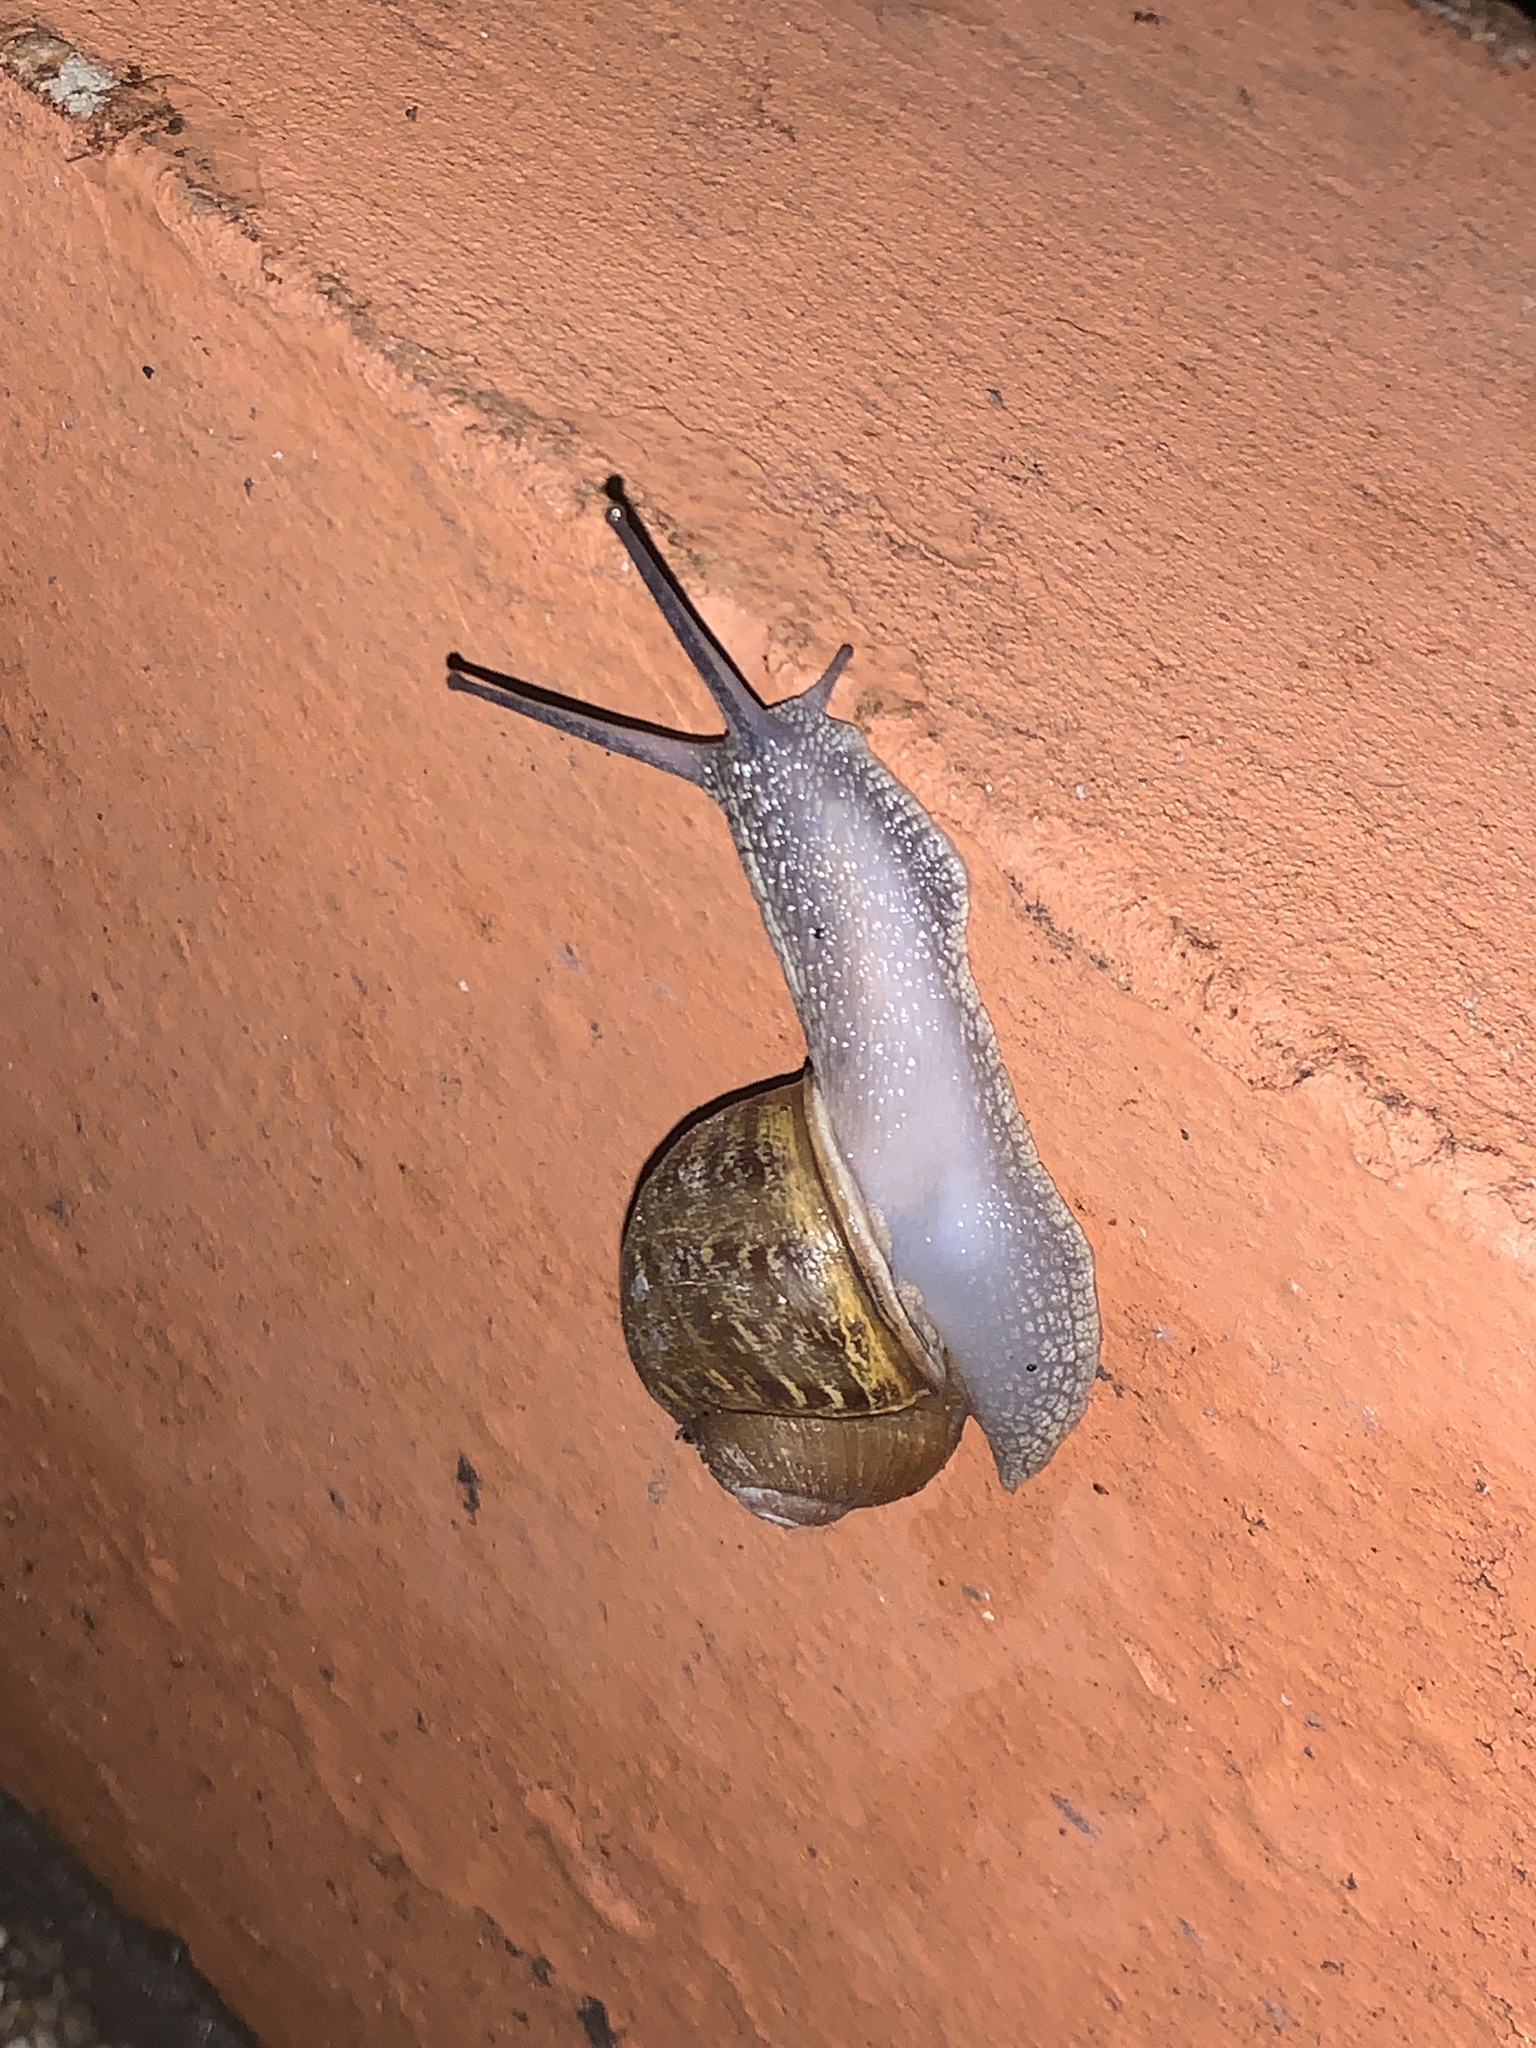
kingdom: Animalia
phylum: Mollusca
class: Gastropoda
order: Stylommatophora
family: Helicidae
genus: Cornu
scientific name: Cornu aspersum
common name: Brown garden snail
